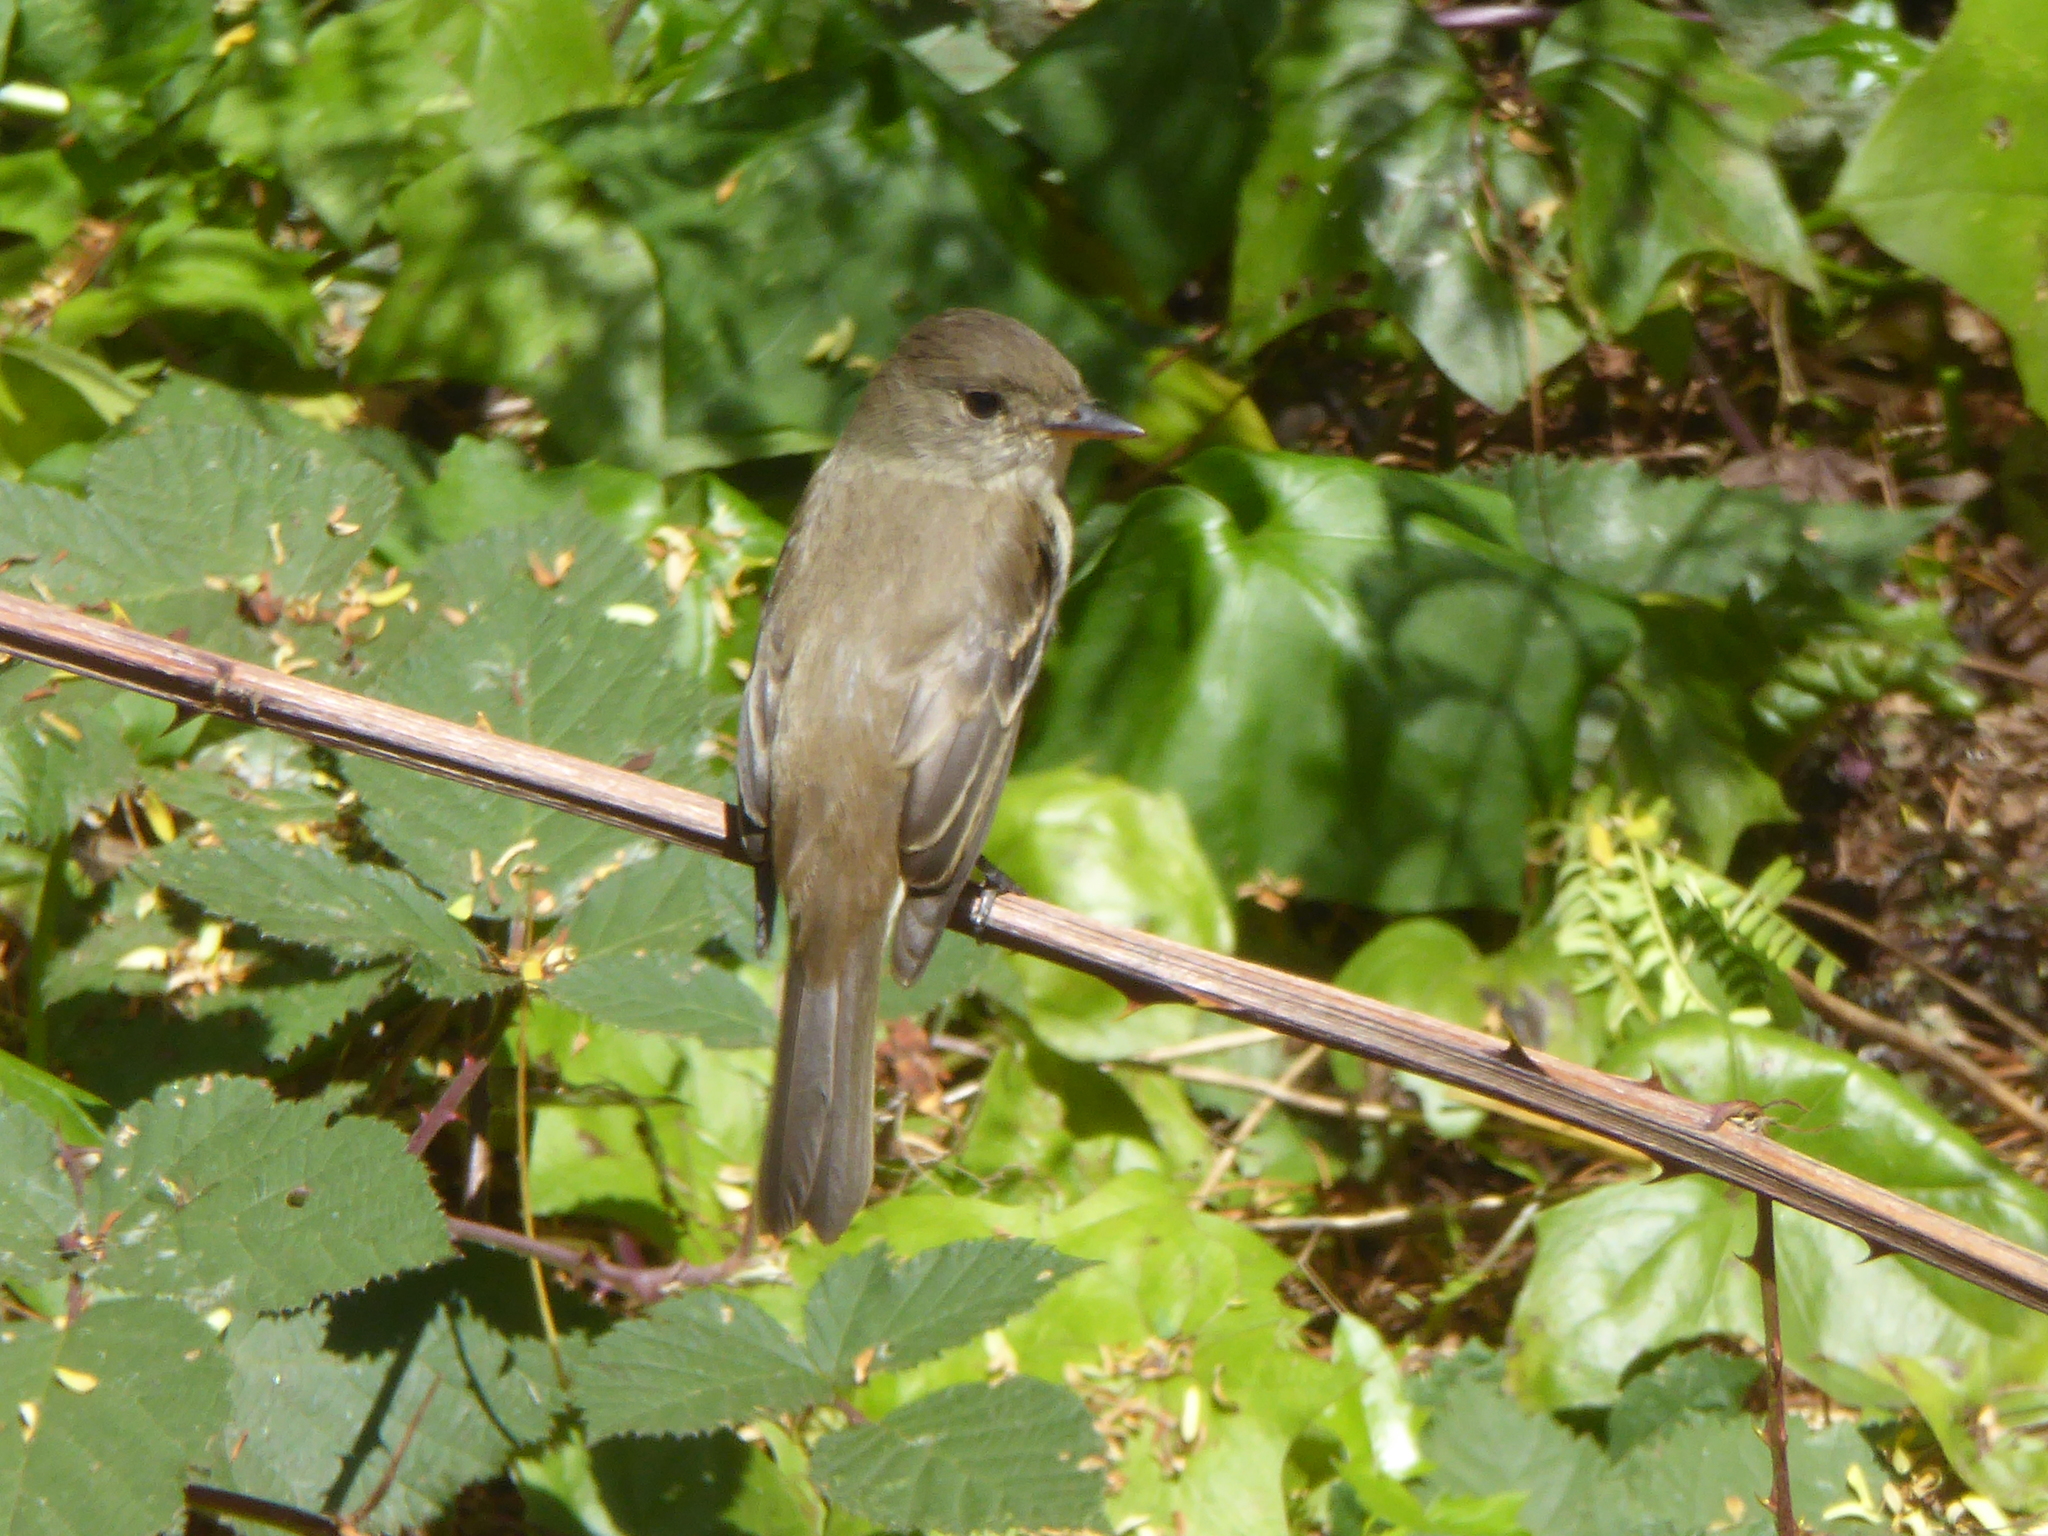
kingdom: Animalia
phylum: Chordata
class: Aves
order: Passeriformes
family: Tyrannidae
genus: Empidonax
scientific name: Empidonax traillii
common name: Willow flycatcher
